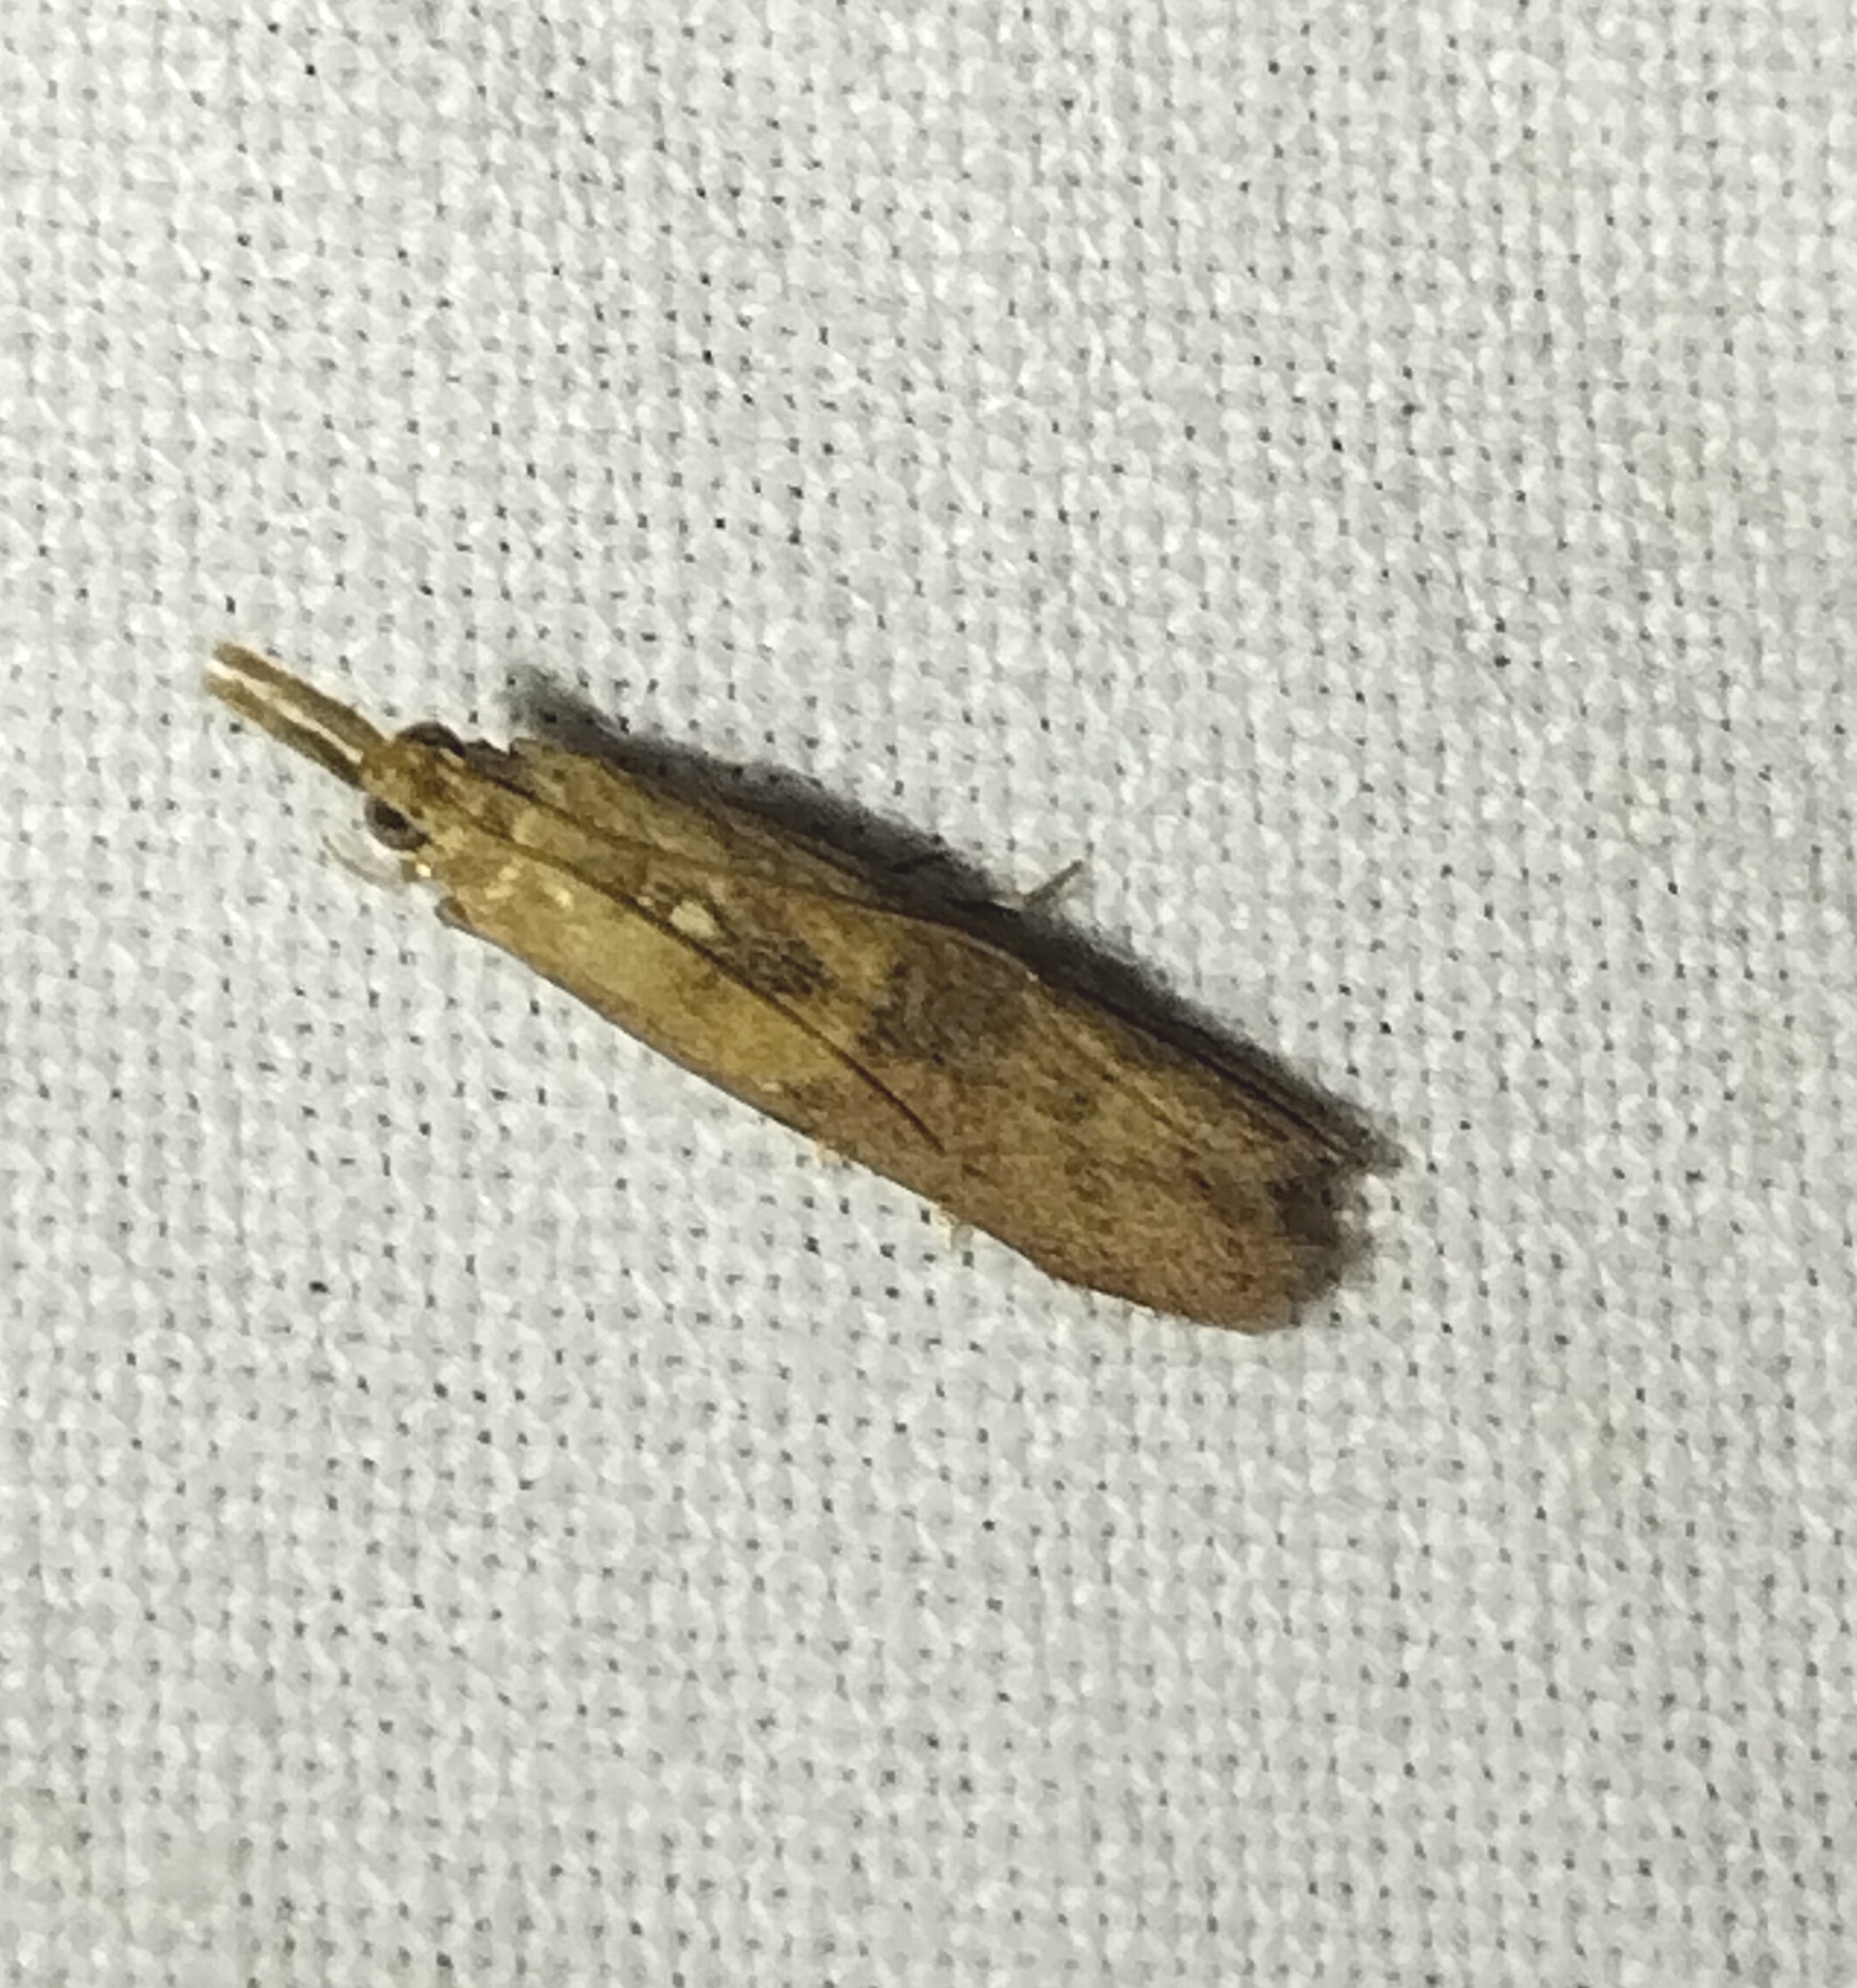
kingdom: Animalia
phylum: Arthropoda
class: Insecta
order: Lepidoptera
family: Pyralidae
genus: Macrorrhinia
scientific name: Macrorrhinia endonephele
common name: Alligator weed stemborer moth
